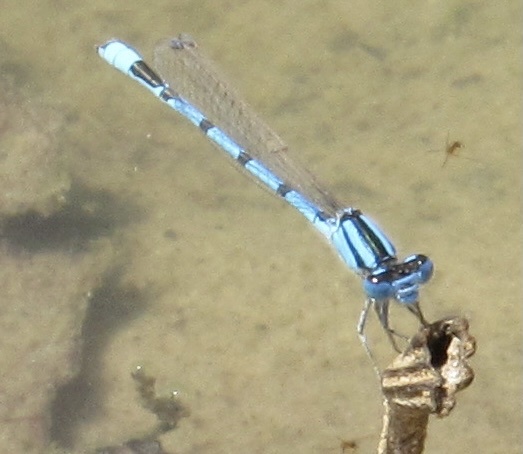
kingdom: Animalia
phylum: Arthropoda
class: Insecta
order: Odonata
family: Coenagrionidae
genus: Enallagma
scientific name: Enallagma civile
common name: Damselfly
